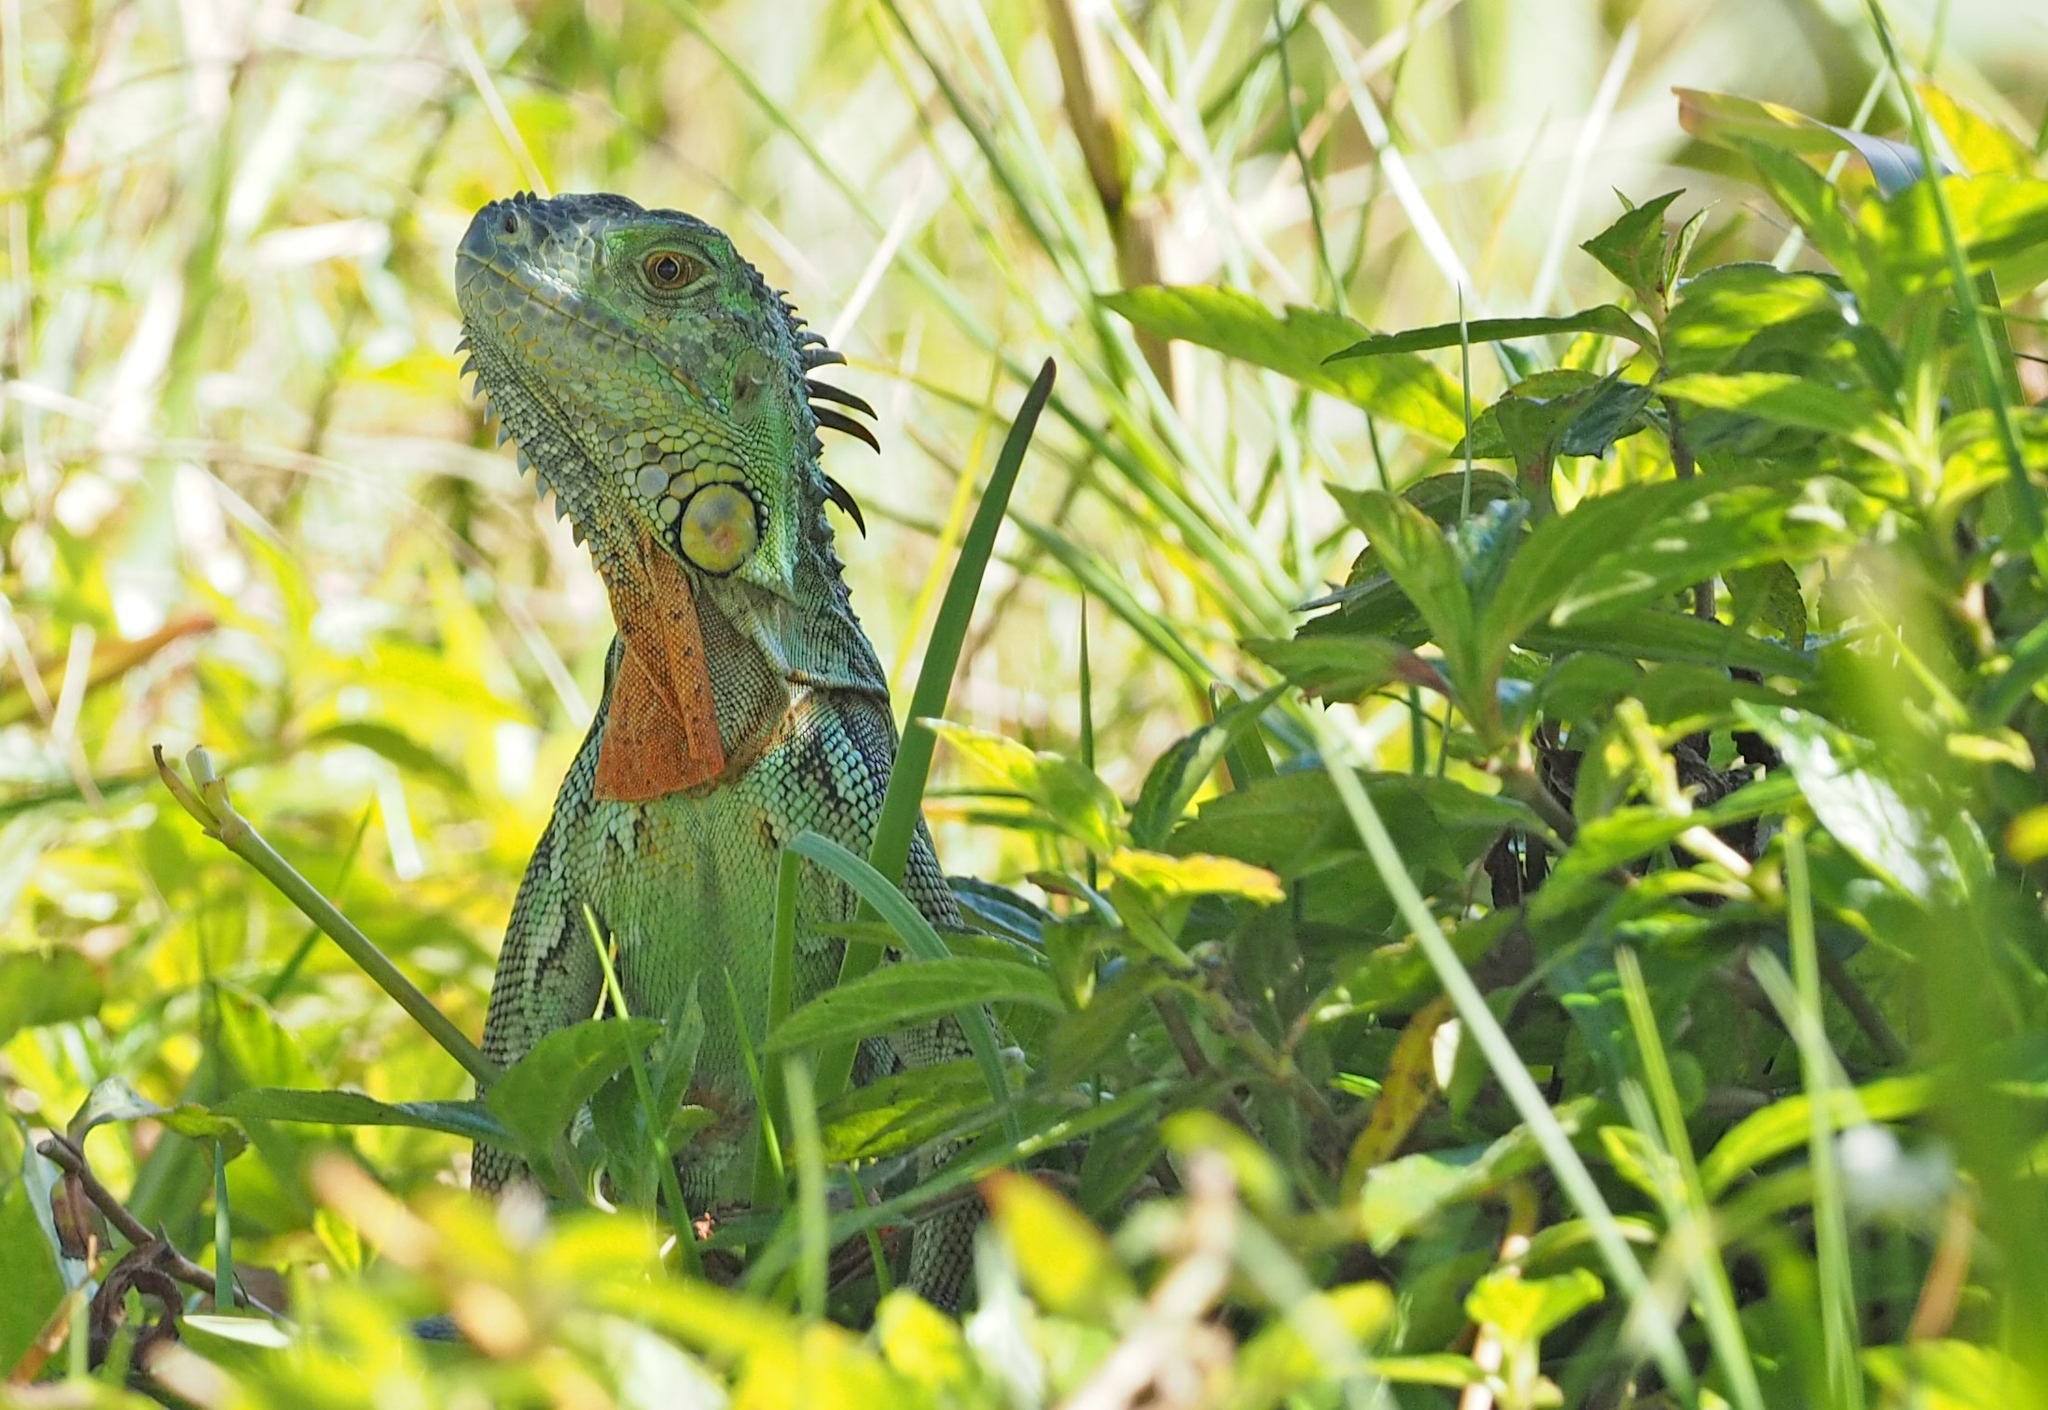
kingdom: Animalia
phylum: Chordata
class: Squamata
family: Iguanidae
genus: Iguana
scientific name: Iguana iguana
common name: Green iguana
